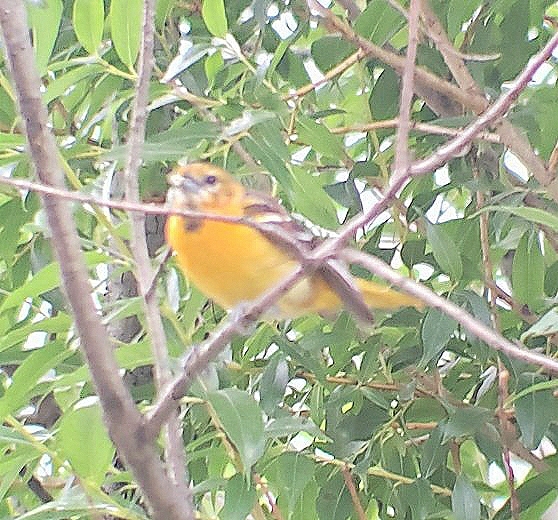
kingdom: Animalia
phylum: Chordata
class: Aves
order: Passeriformes
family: Icteridae
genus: Icterus
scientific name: Icterus galbula
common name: Baltimore oriole
